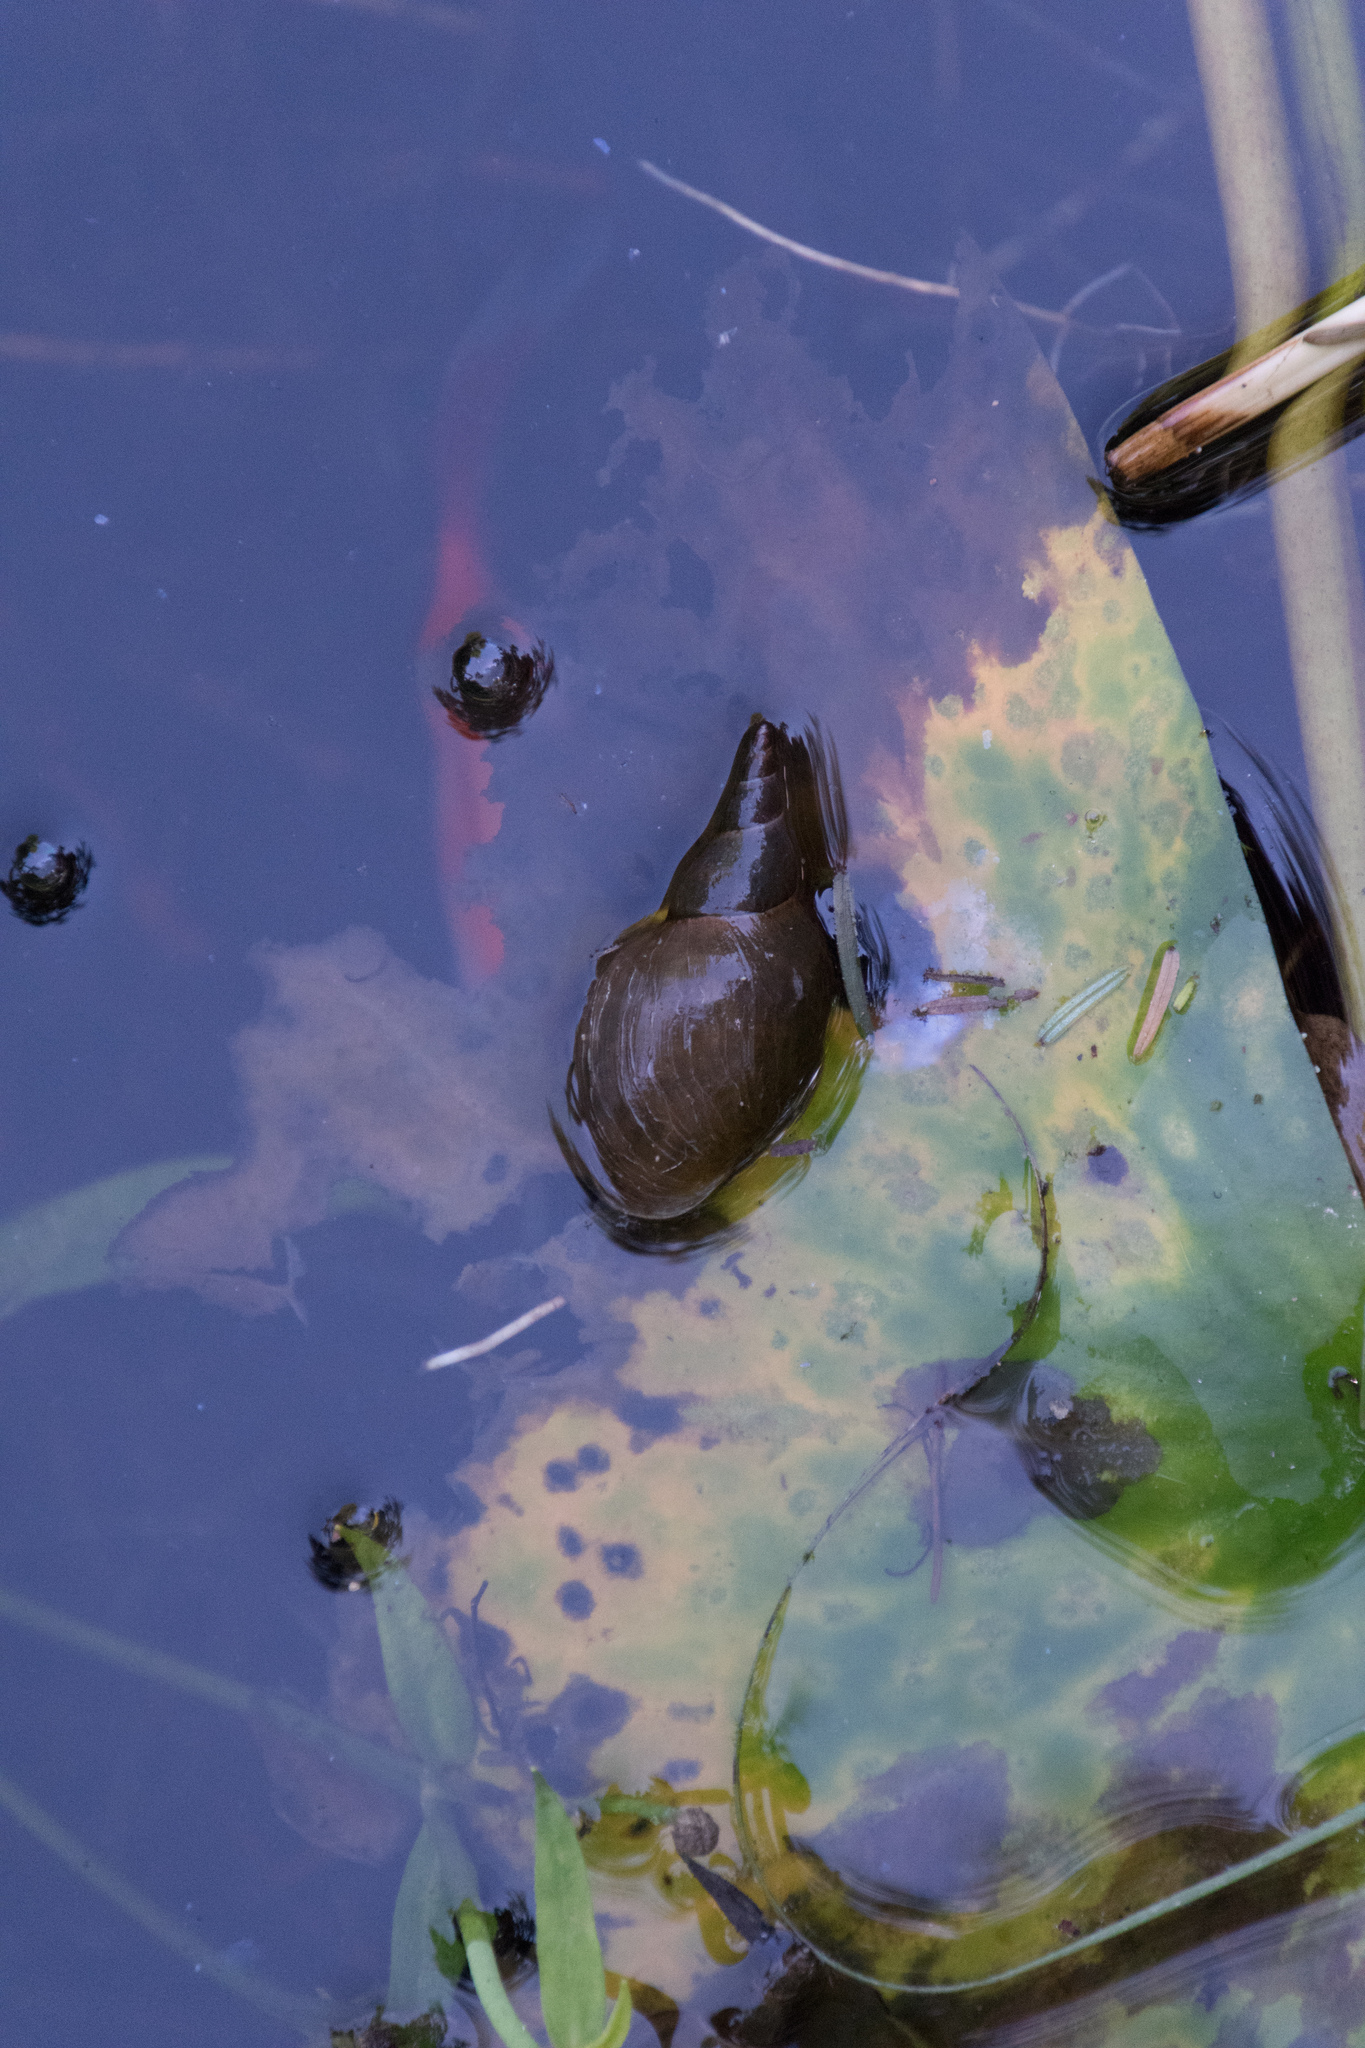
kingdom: Animalia
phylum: Mollusca
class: Gastropoda
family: Lymnaeidae
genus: Lymnaea
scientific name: Lymnaea stagnalis
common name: Great pond snail
